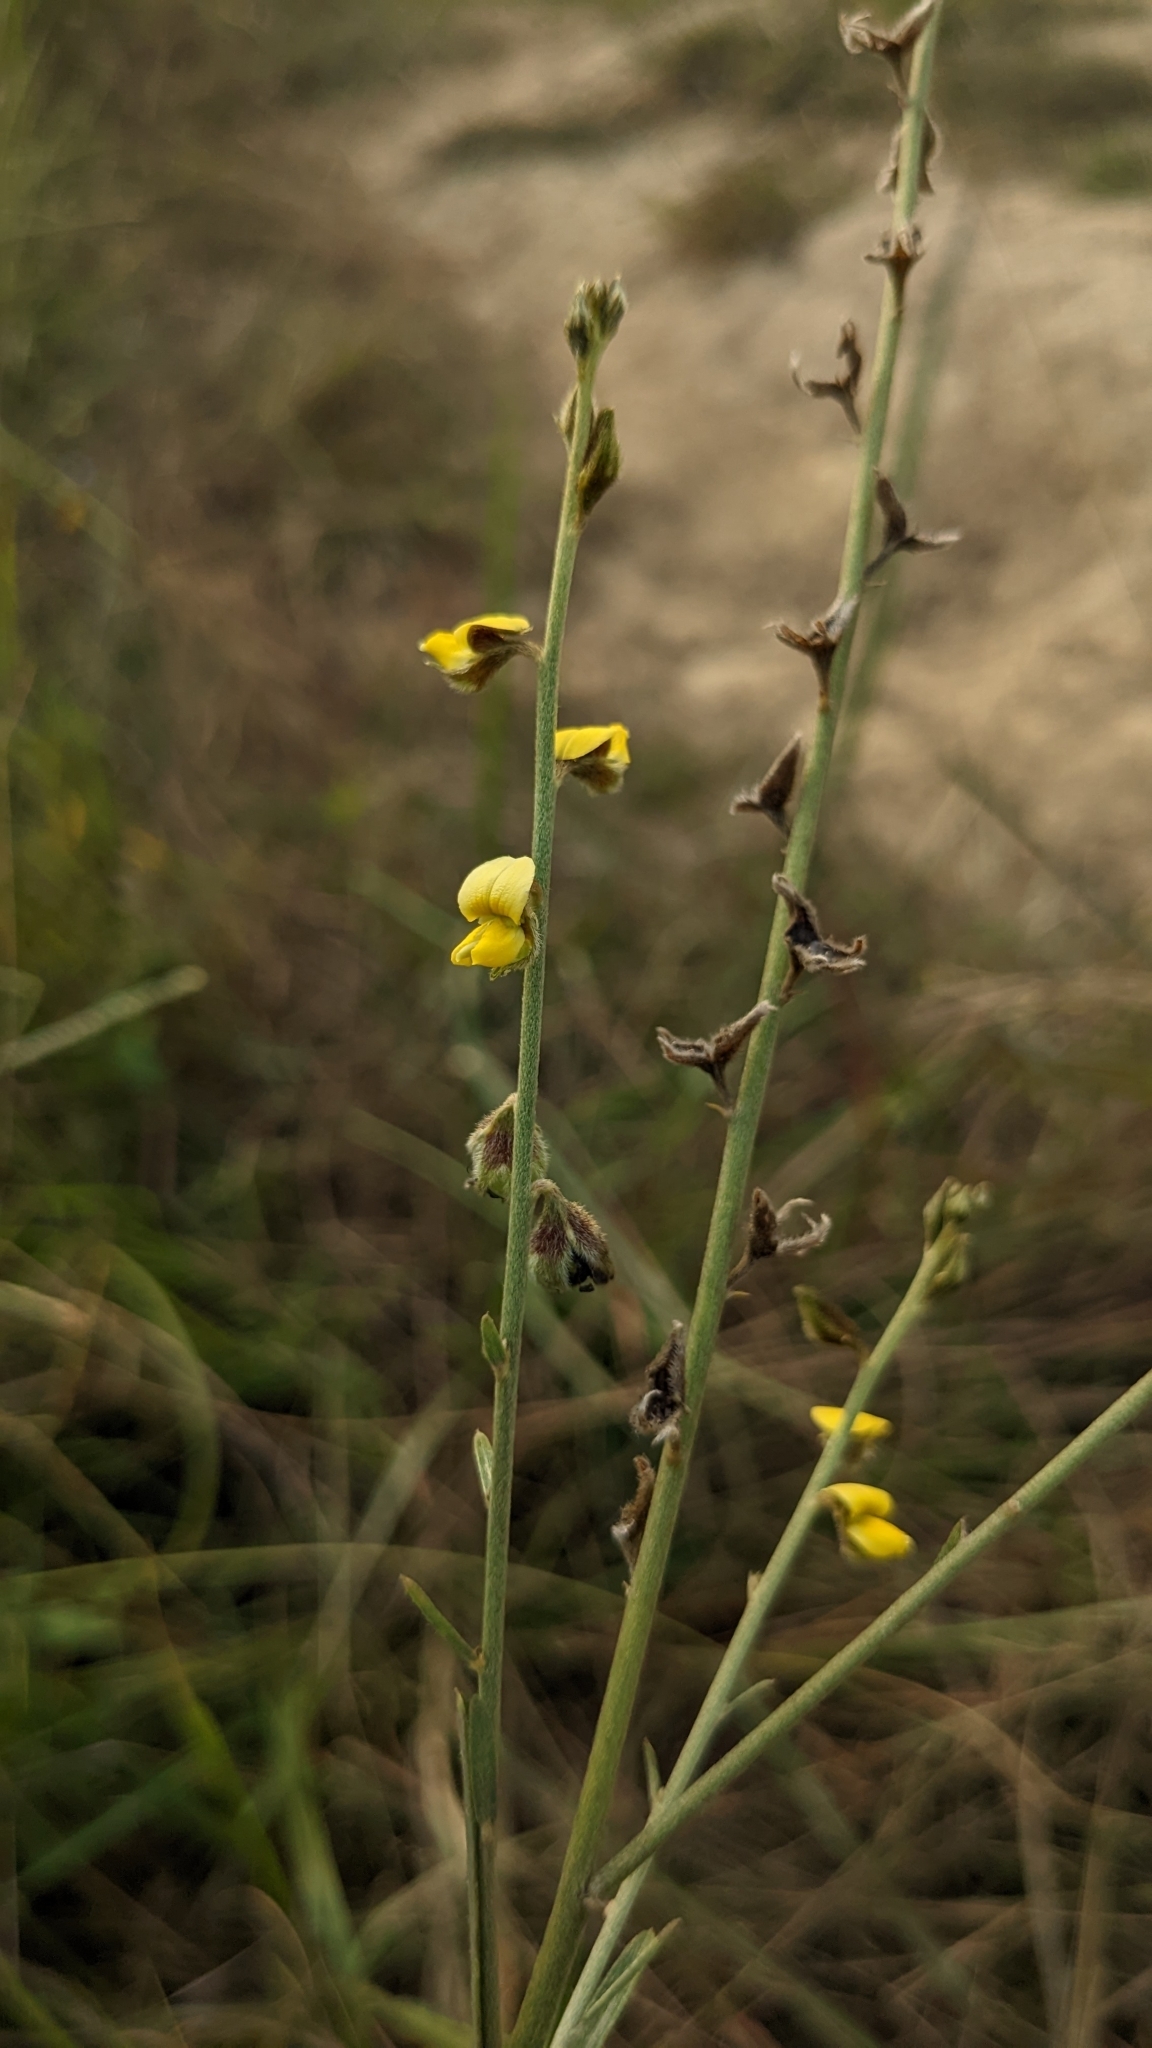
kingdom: Plantae
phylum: Tracheophyta
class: Magnoliopsida
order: Fabales
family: Fabaceae
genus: Crotalaria
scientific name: Crotalaria linifolia
